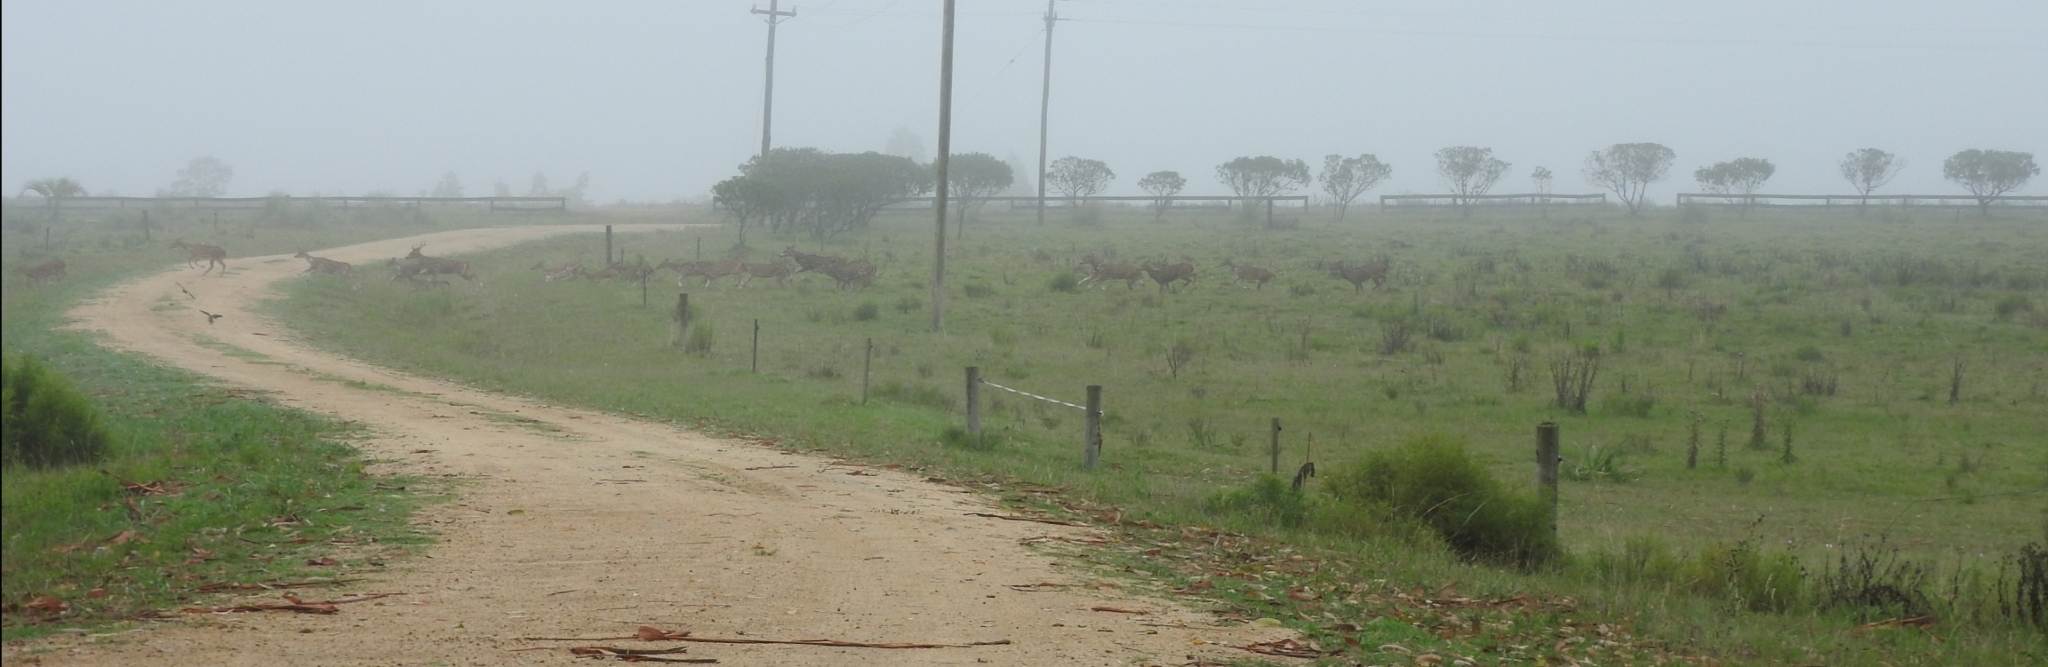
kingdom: Animalia
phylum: Chordata
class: Mammalia
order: Artiodactyla
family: Cervidae
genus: Axis
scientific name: Axis axis
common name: Chital
